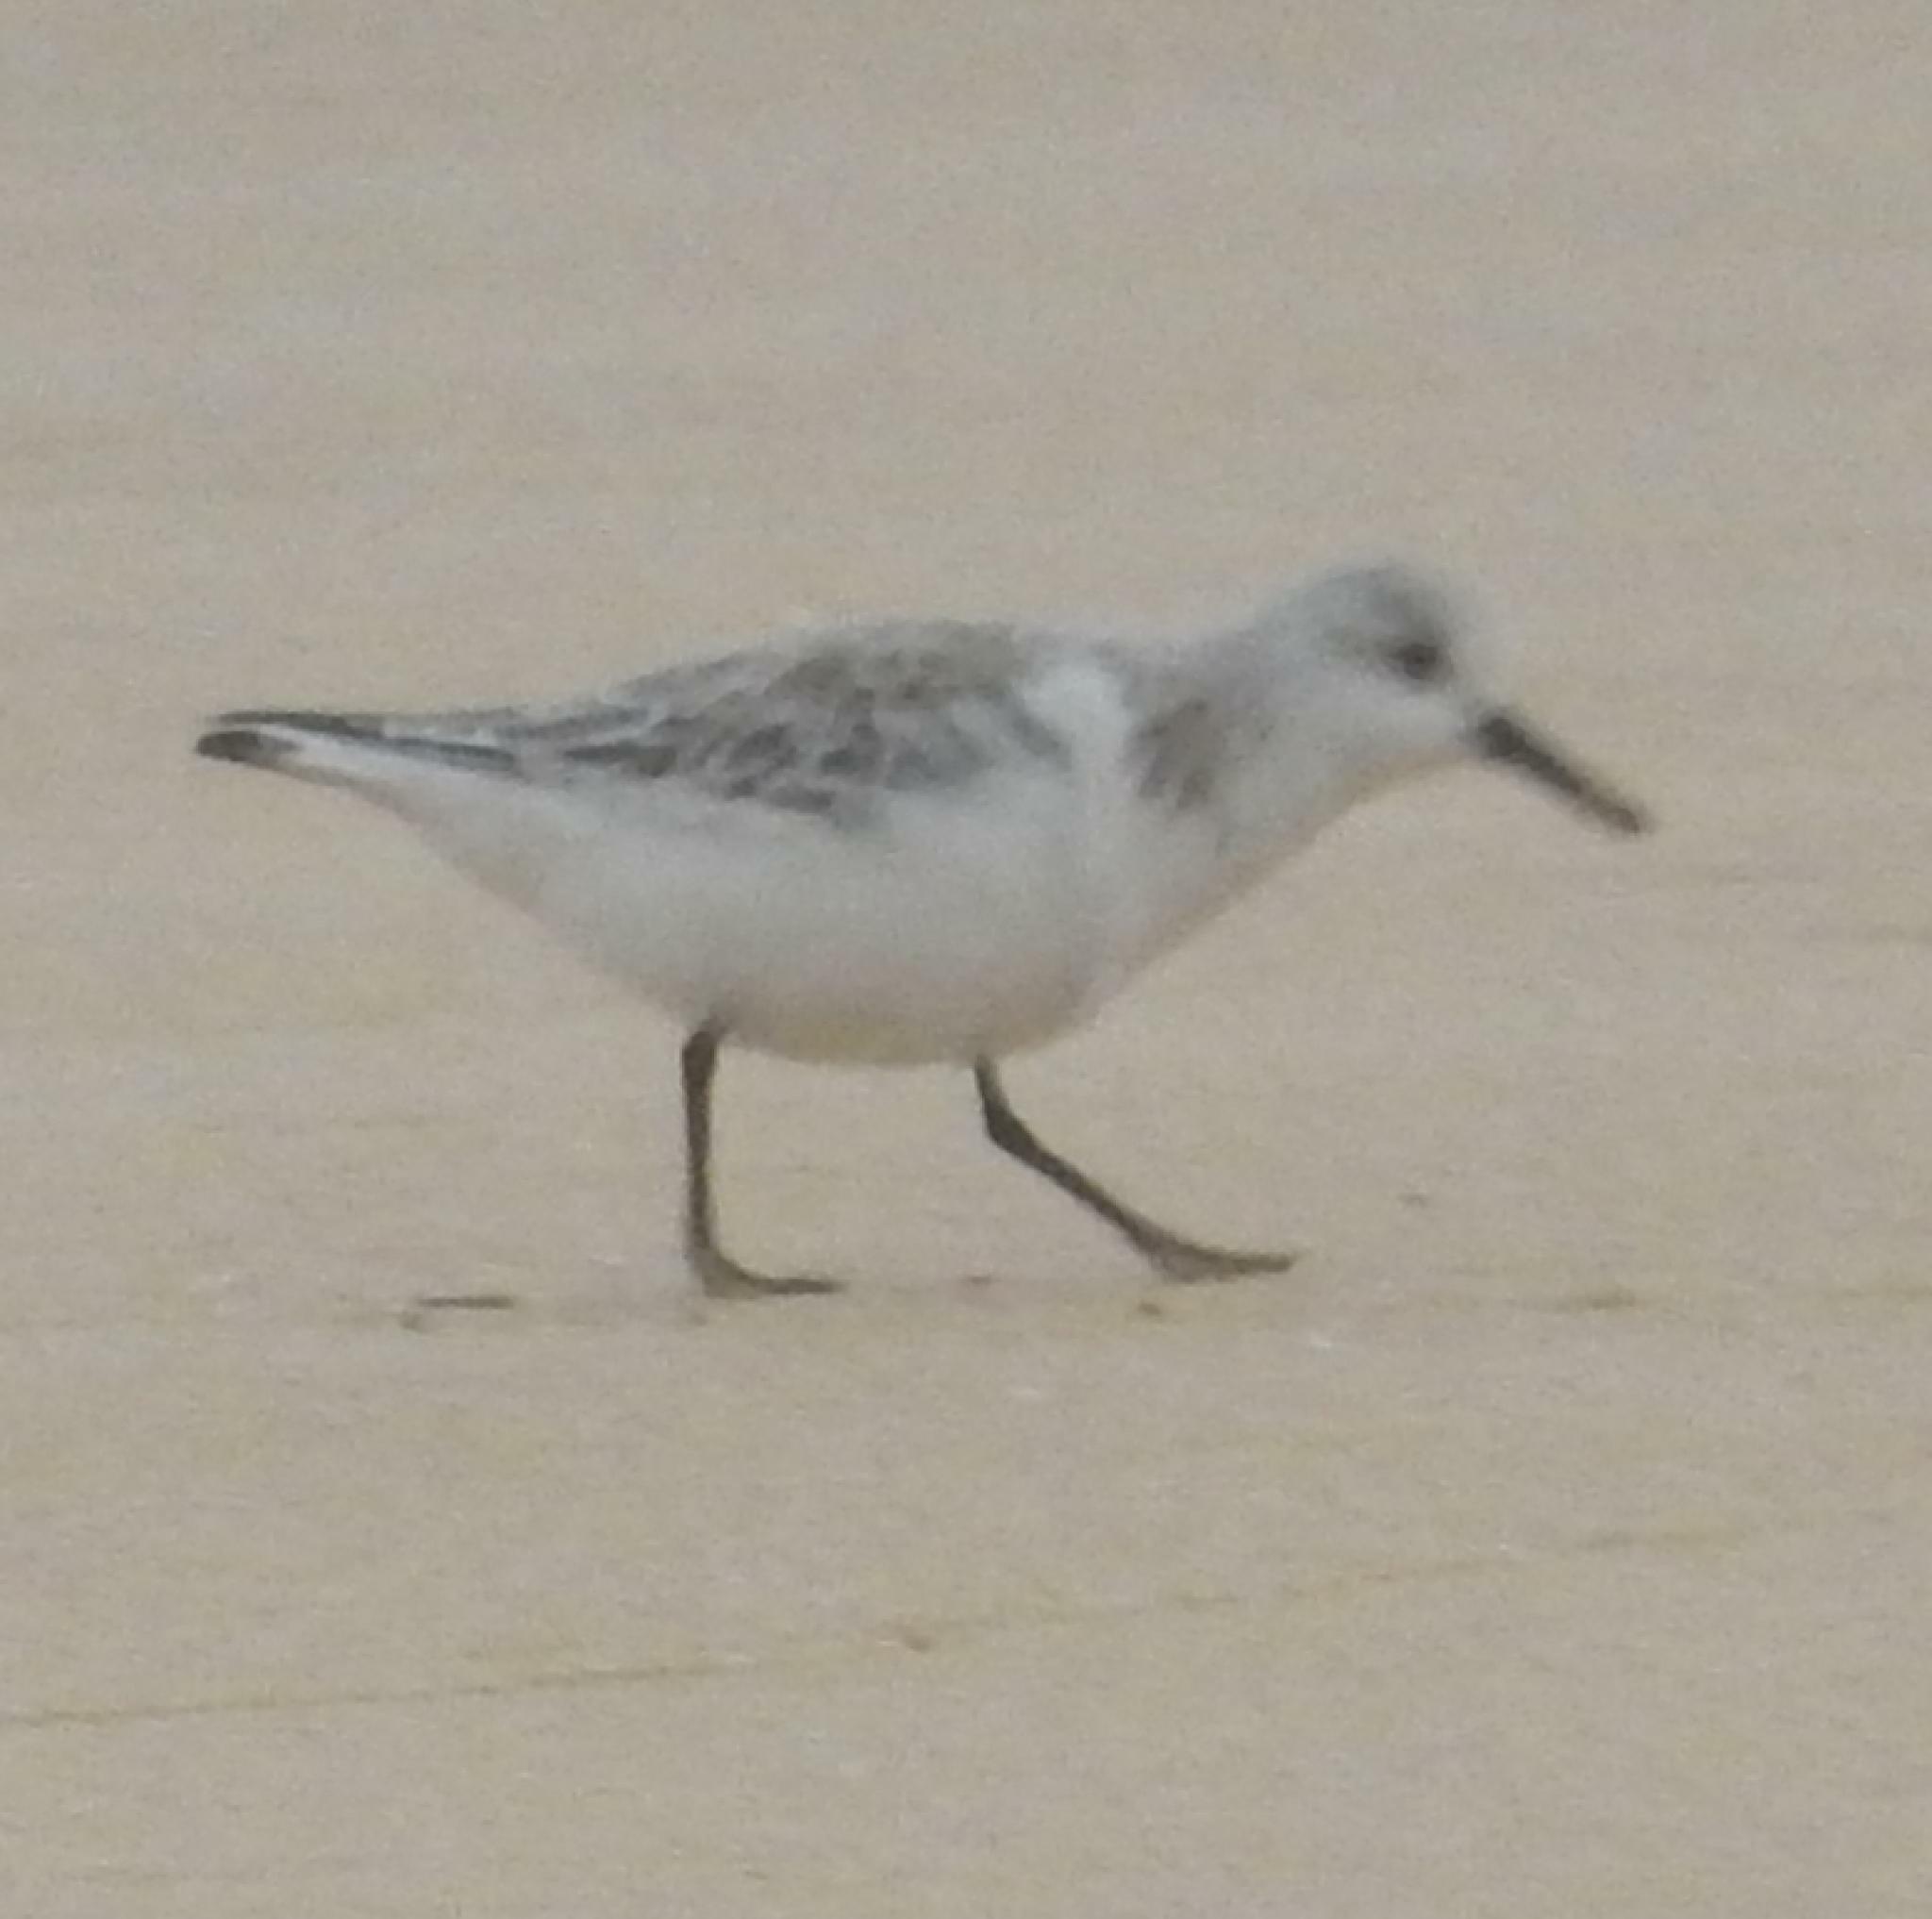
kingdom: Animalia
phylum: Chordata
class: Aves
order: Charadriiformes
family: Scolopacidae
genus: Calidris
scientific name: Calidris alba
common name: Sanderling
